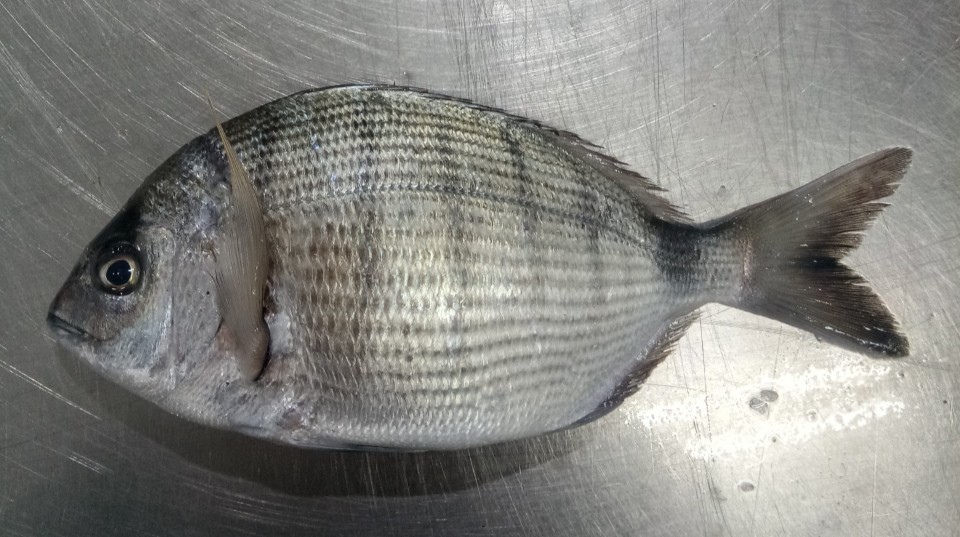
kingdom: Animalia
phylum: Chordata
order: Perciformes
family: Sparidae
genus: Diplodus
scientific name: Diplodus sargus
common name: White seabream
